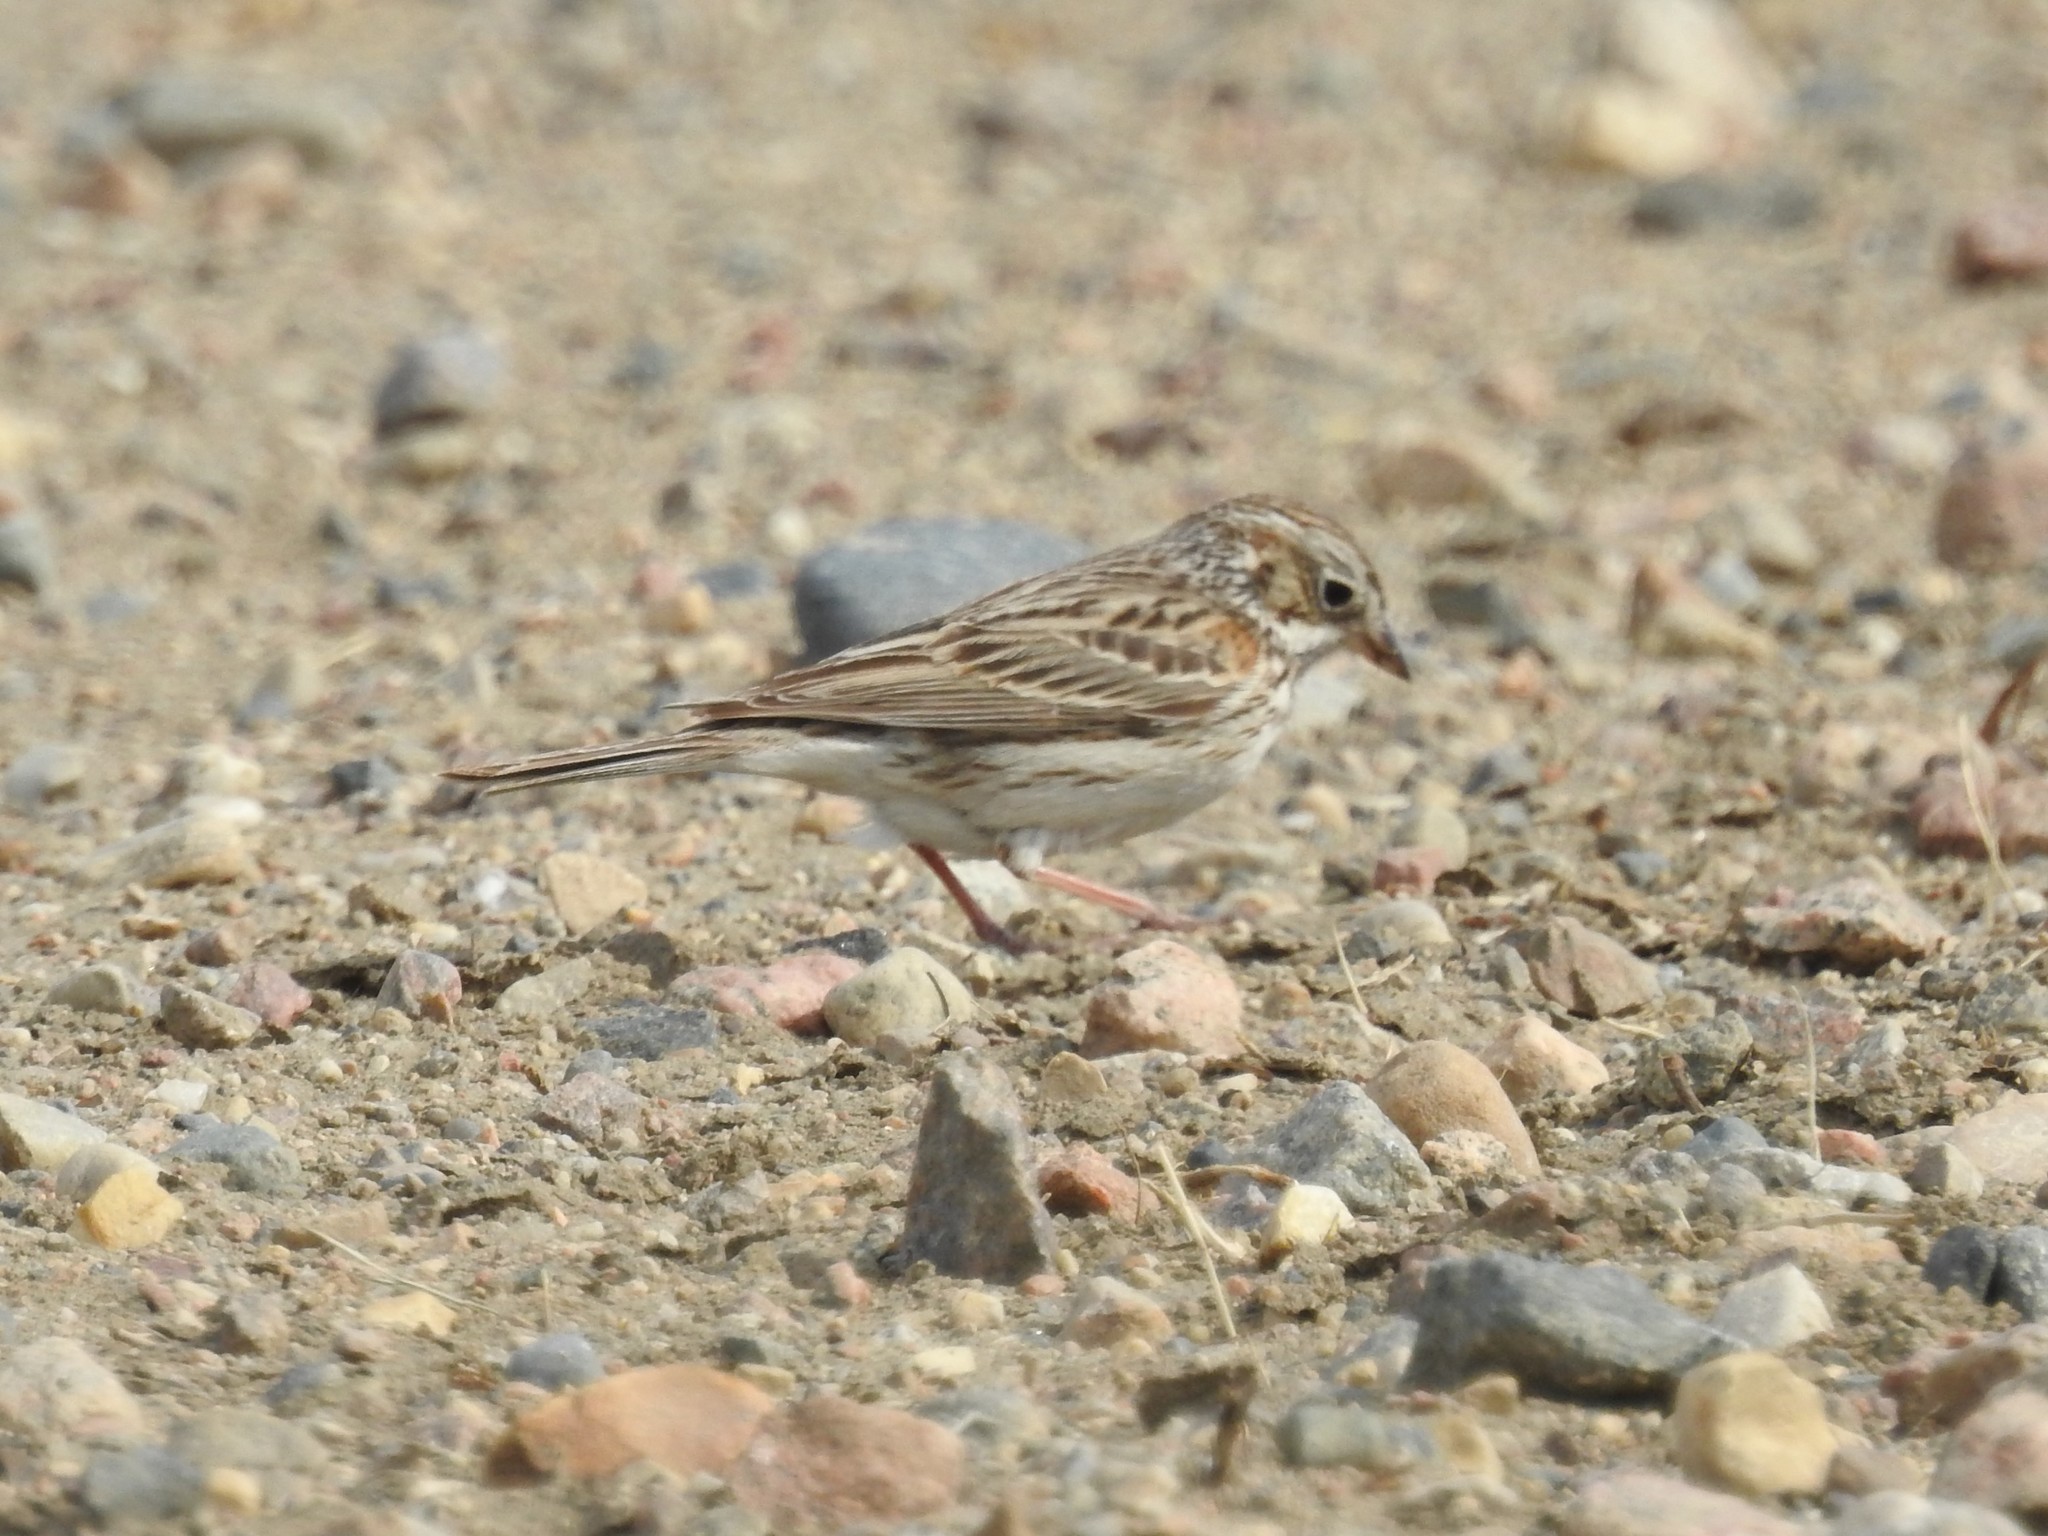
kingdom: Animalia
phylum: Chordata
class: Aves
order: Passeriformes
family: Passerellidae
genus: Pooecetes
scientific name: Pooecetes gramineus
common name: Vesper sparrow
